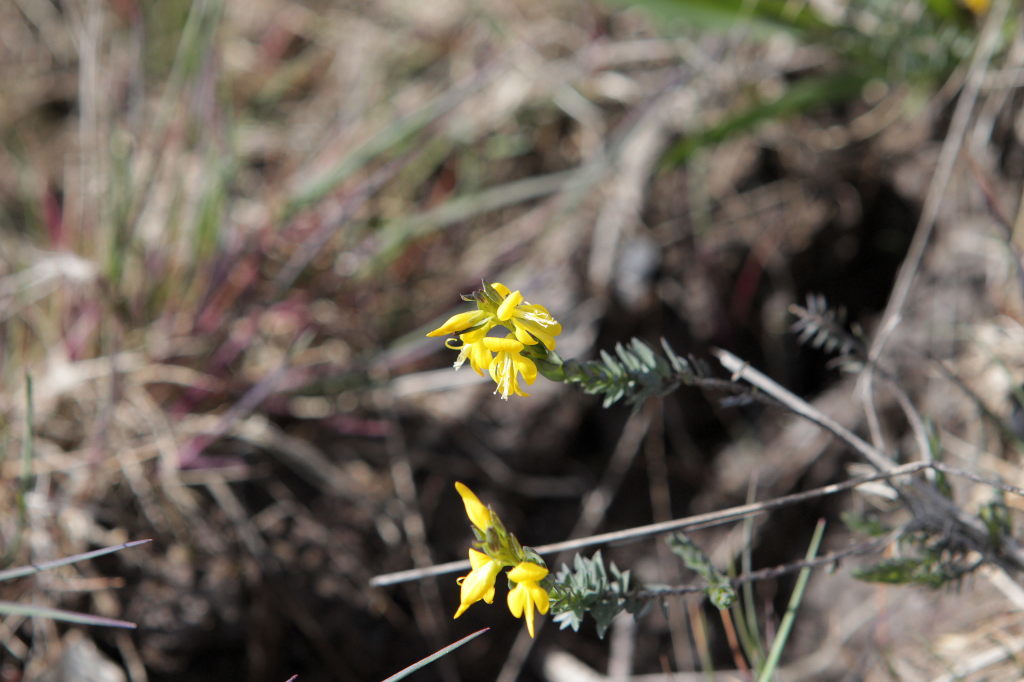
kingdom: Plantae
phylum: Tracheophyta
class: Magnoliopsida
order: Fabales
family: Fabaceae
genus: Genista
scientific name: Genista anglica
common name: Petty whin
